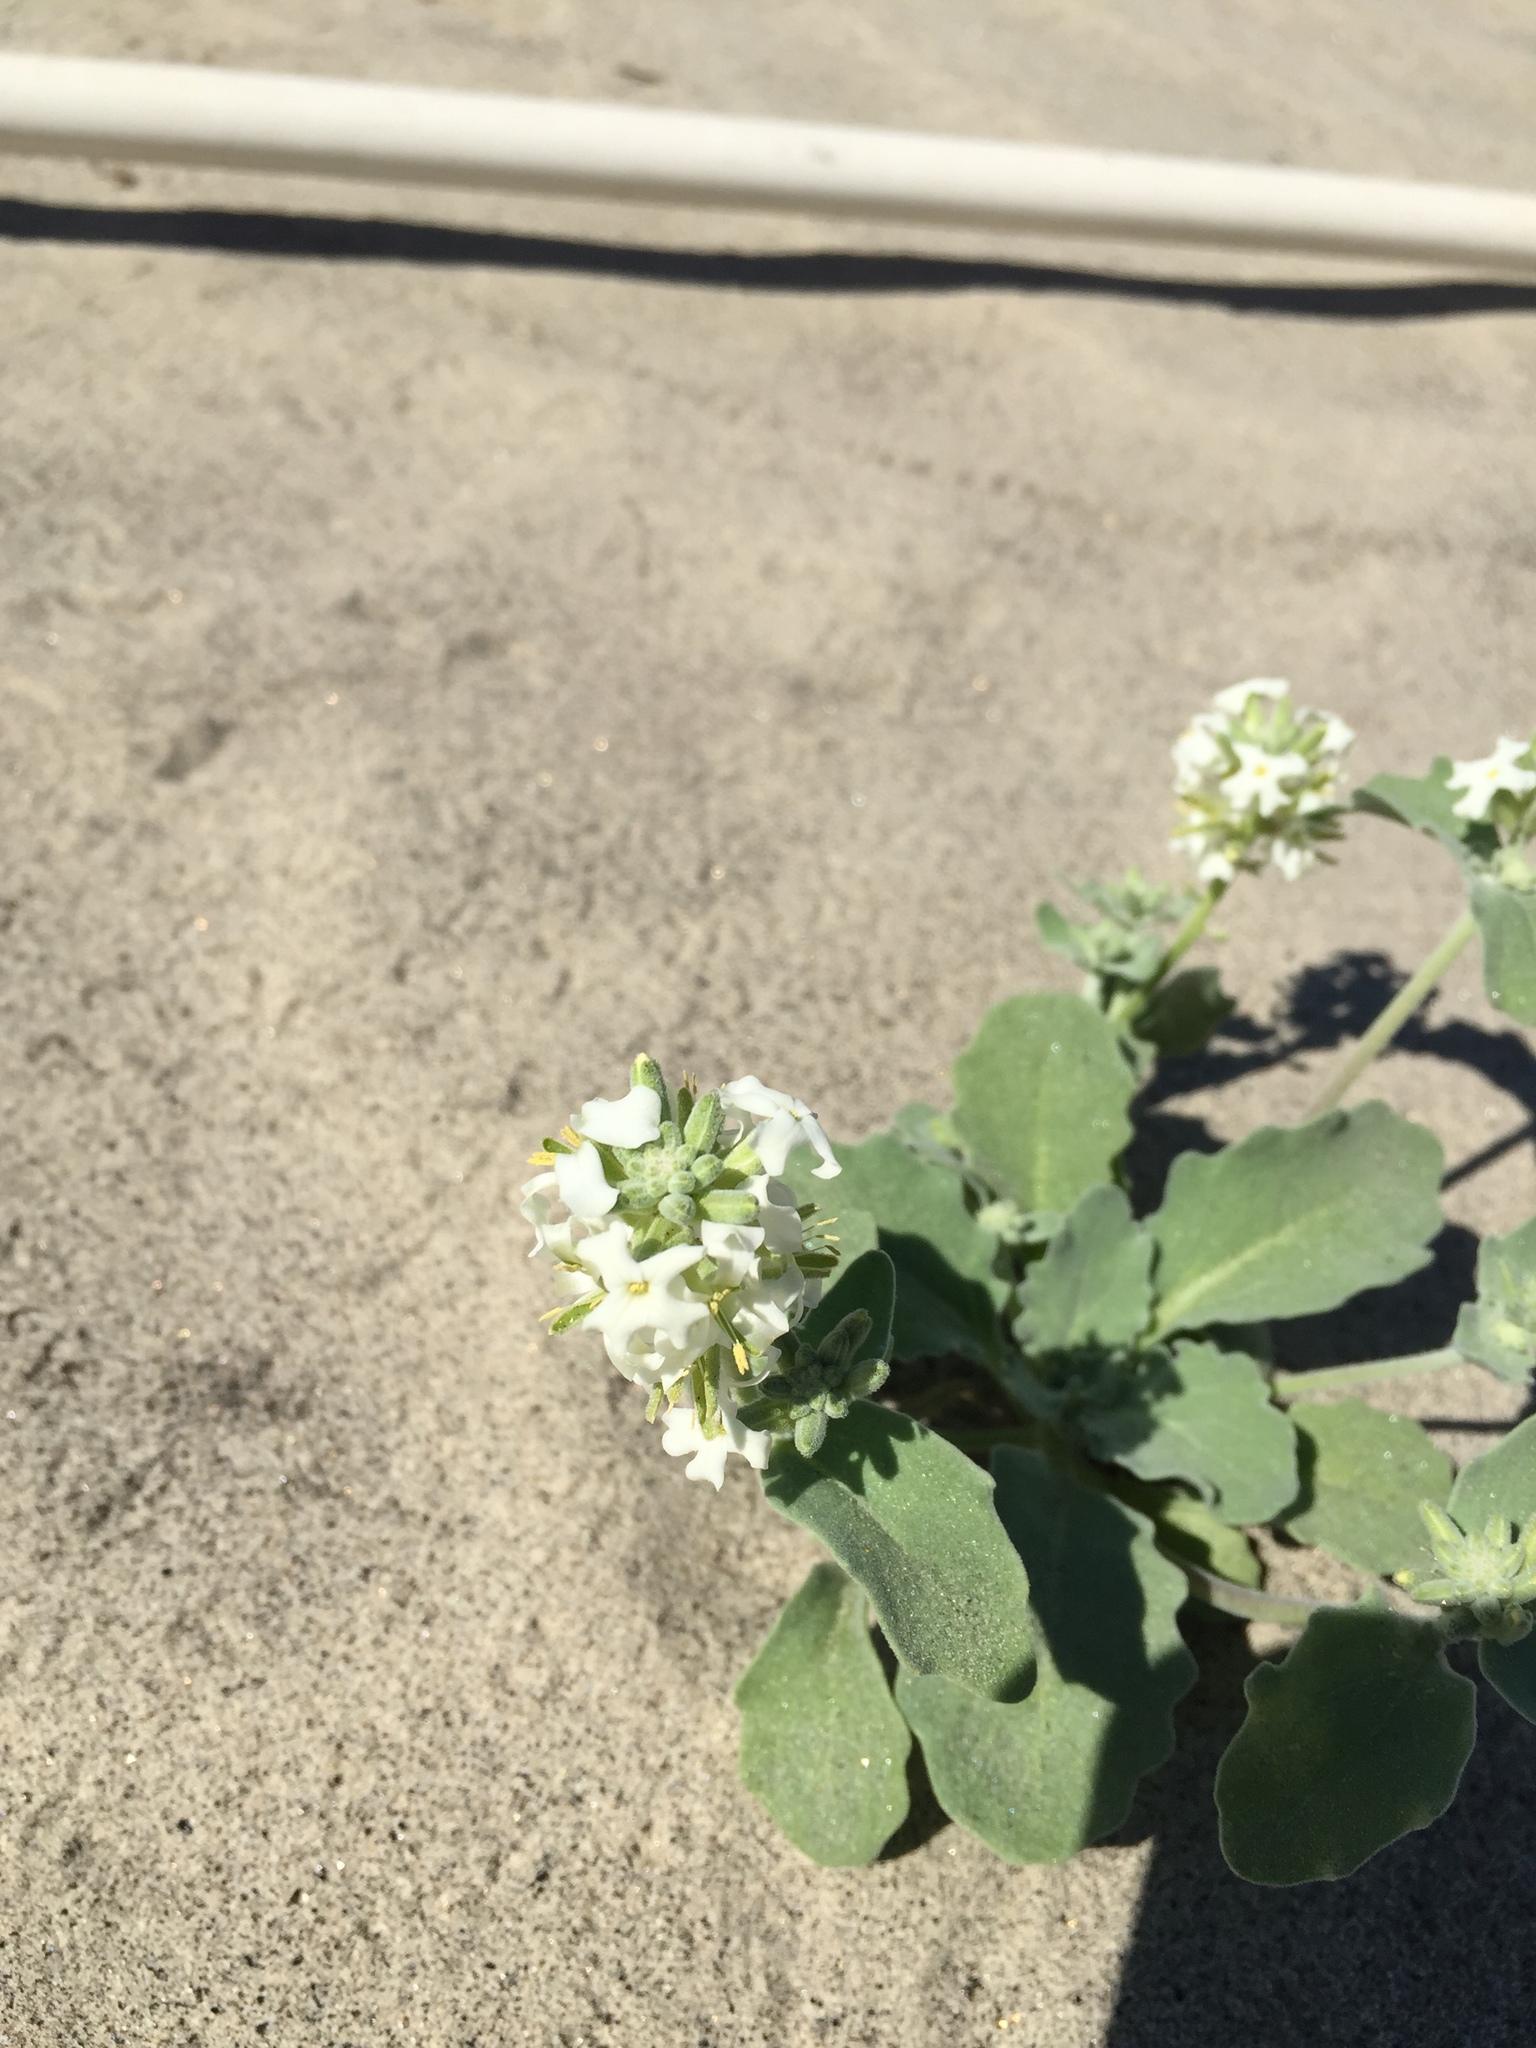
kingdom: Plantae
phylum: Tracheophyta
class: Magnoliopsida
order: Brassicales
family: Brassicaceae
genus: Dithyrea
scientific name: Dithyrea californica
